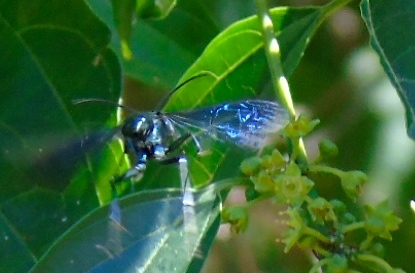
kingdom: Animalia
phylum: Arthropoda
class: Insecta
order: Hymenoptera
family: Sphecidae
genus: Chalybion
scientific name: Chalybion
